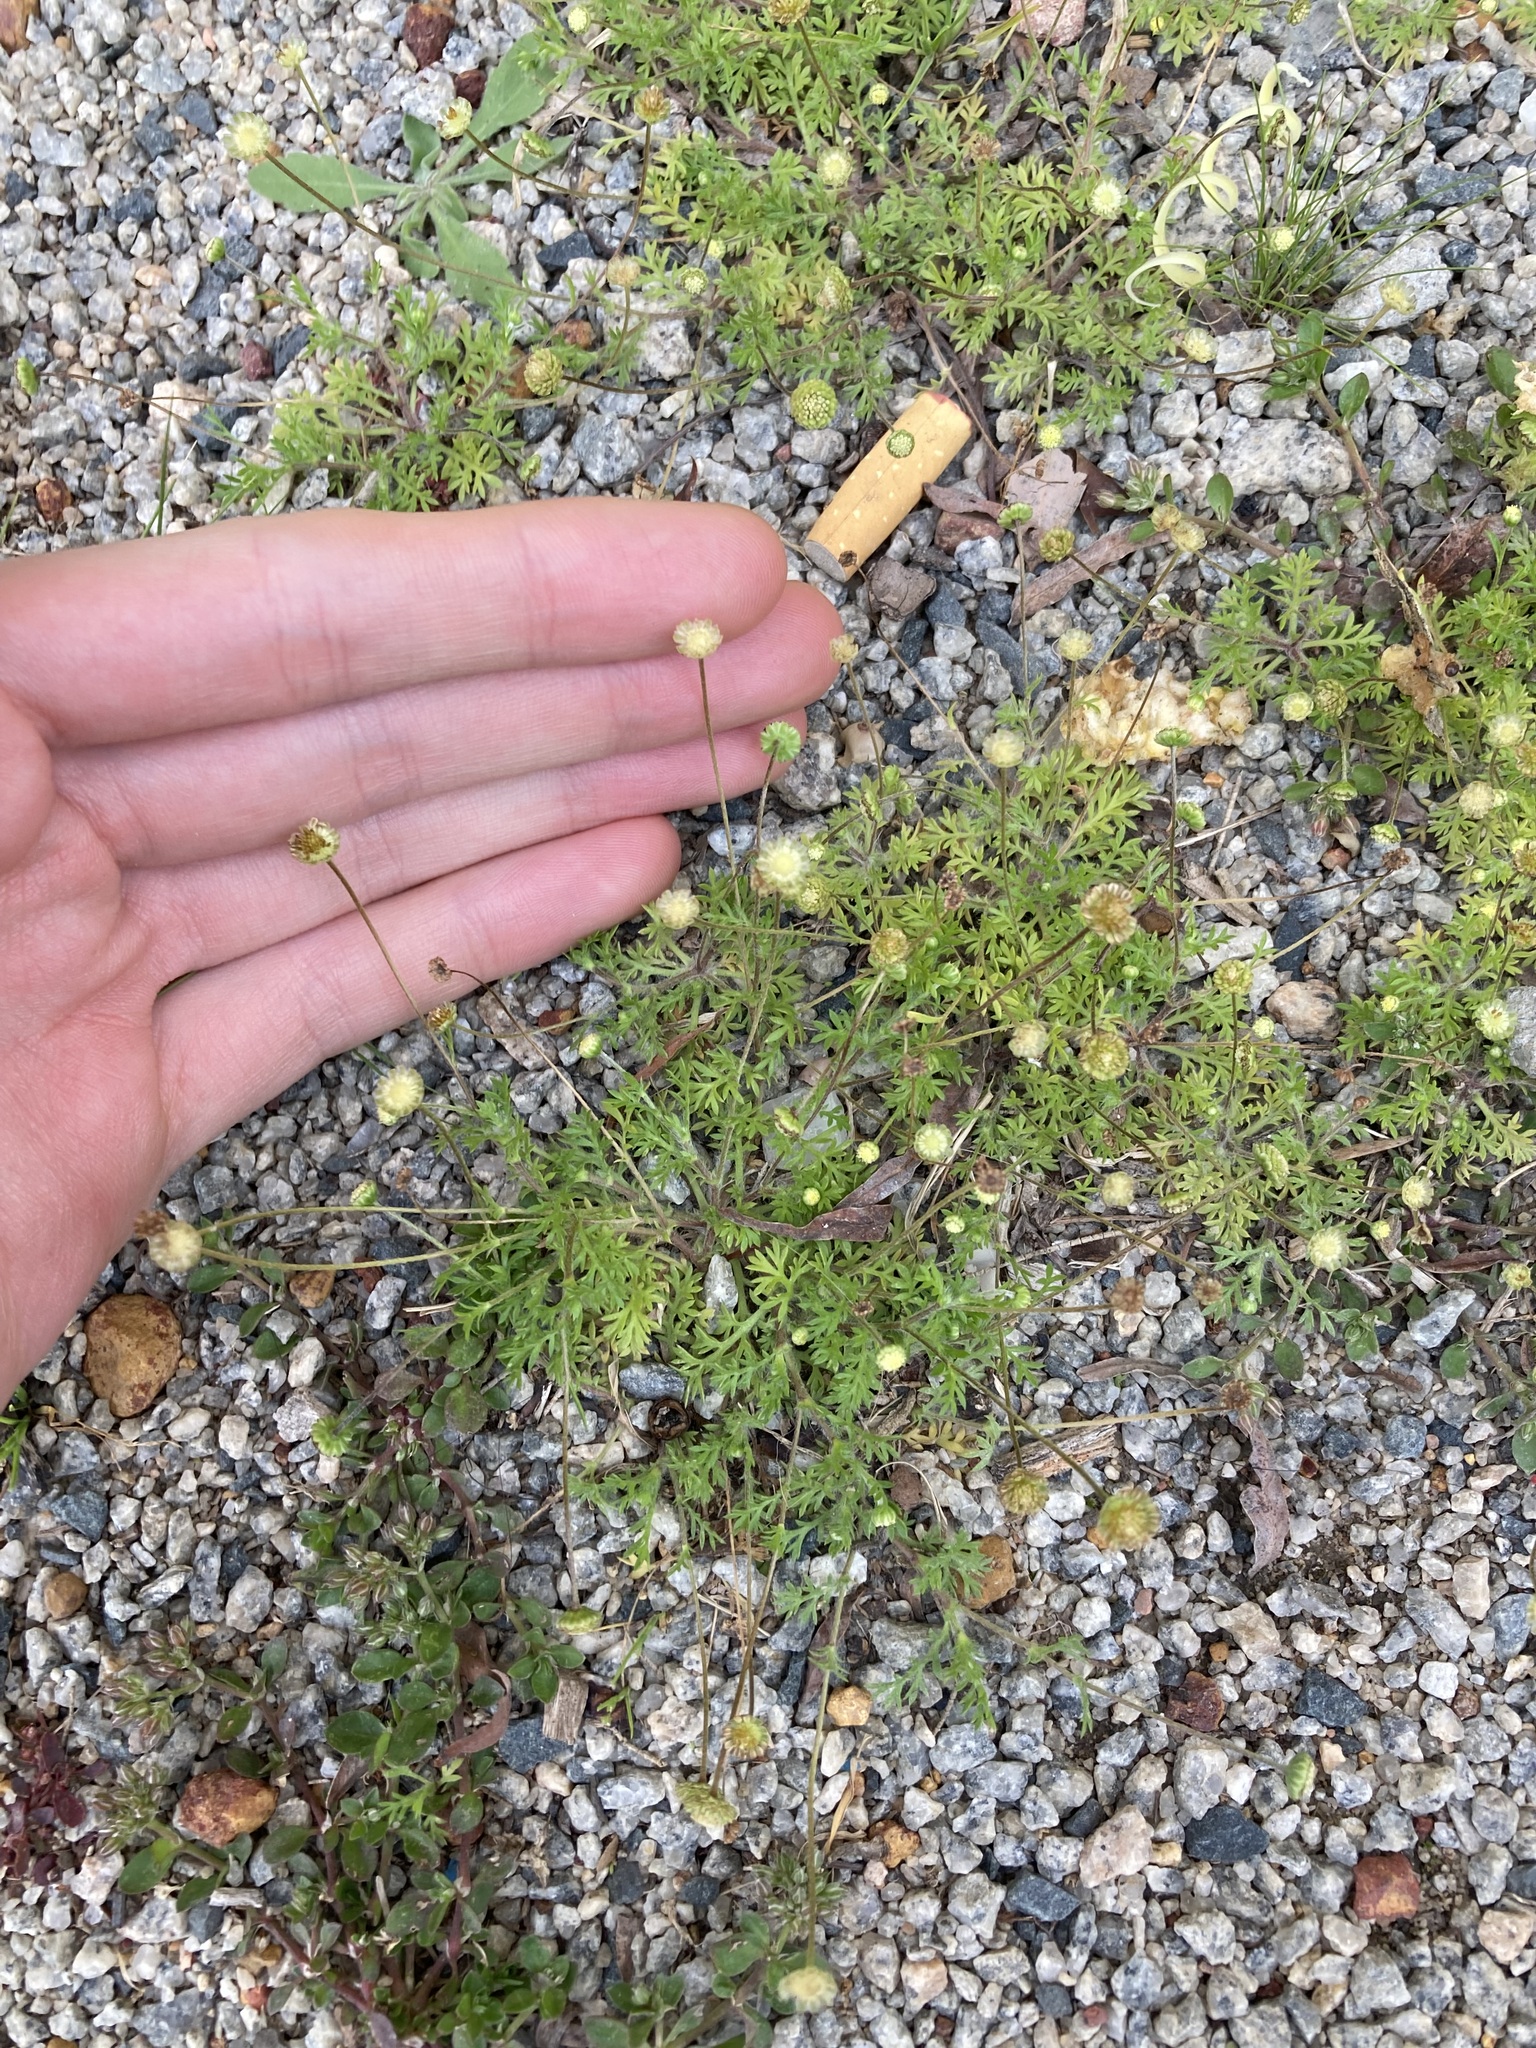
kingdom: Plantae
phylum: Tracheophyta
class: Magnoliopsida
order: Asterales
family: Asteraceae
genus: Cotula
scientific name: Cotula australis
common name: Australian waterbuttons
